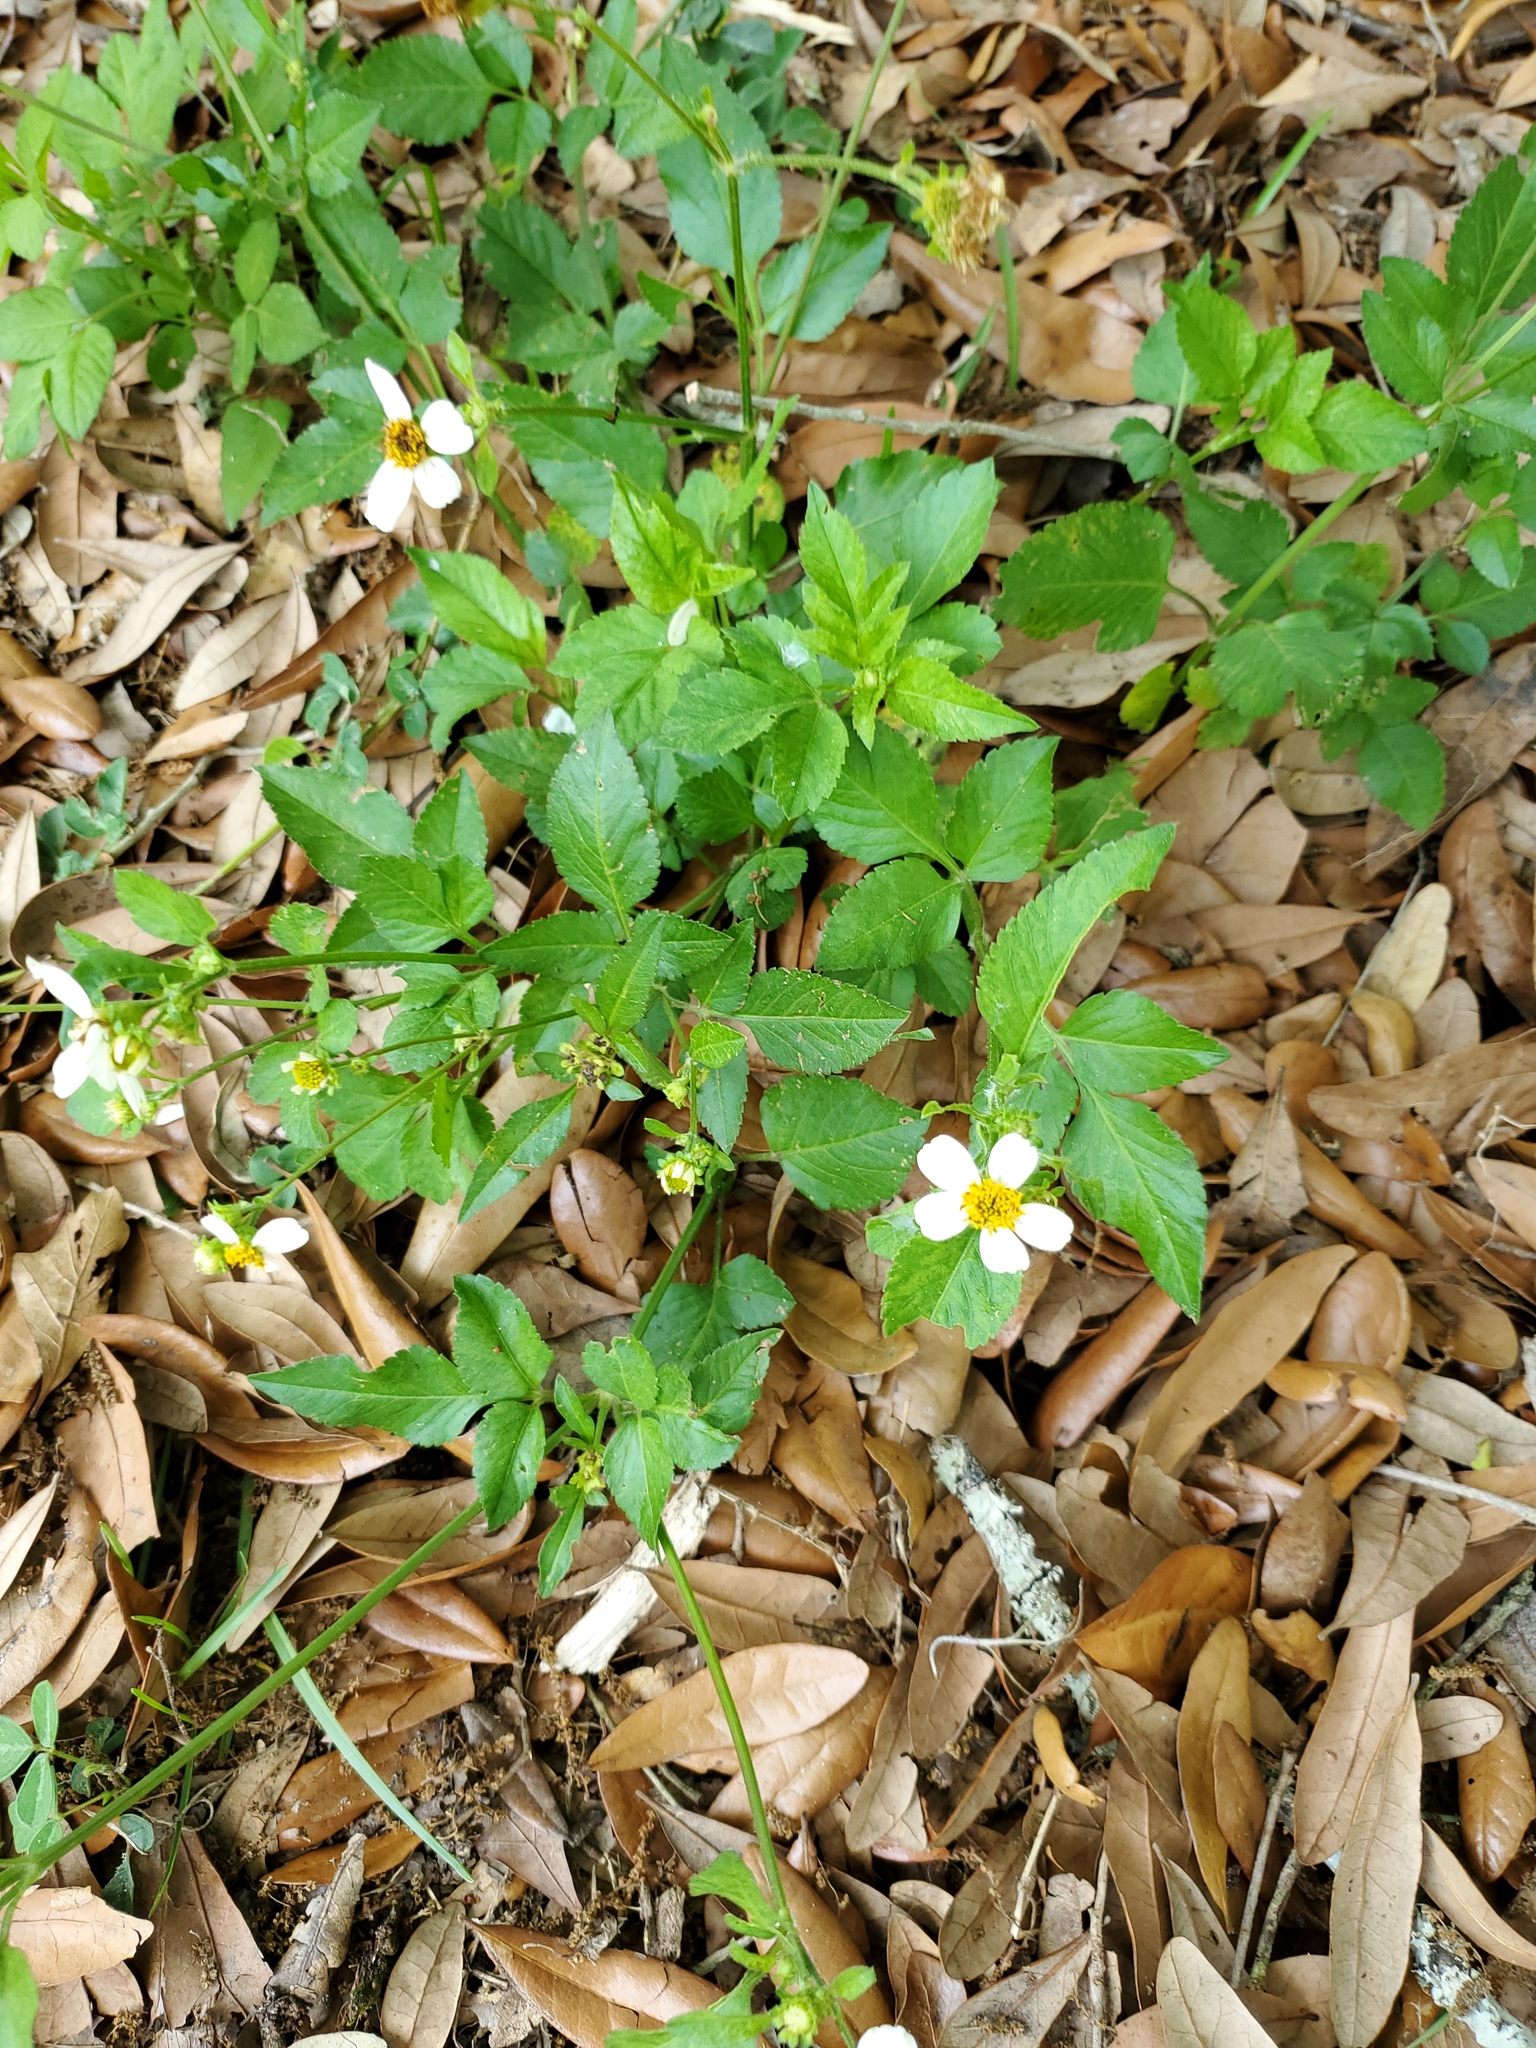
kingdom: Plantae
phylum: Tracheophyta
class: Magnoliopsida
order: Asterales
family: Asteraceae
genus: Bidens
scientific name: Bidens alba
